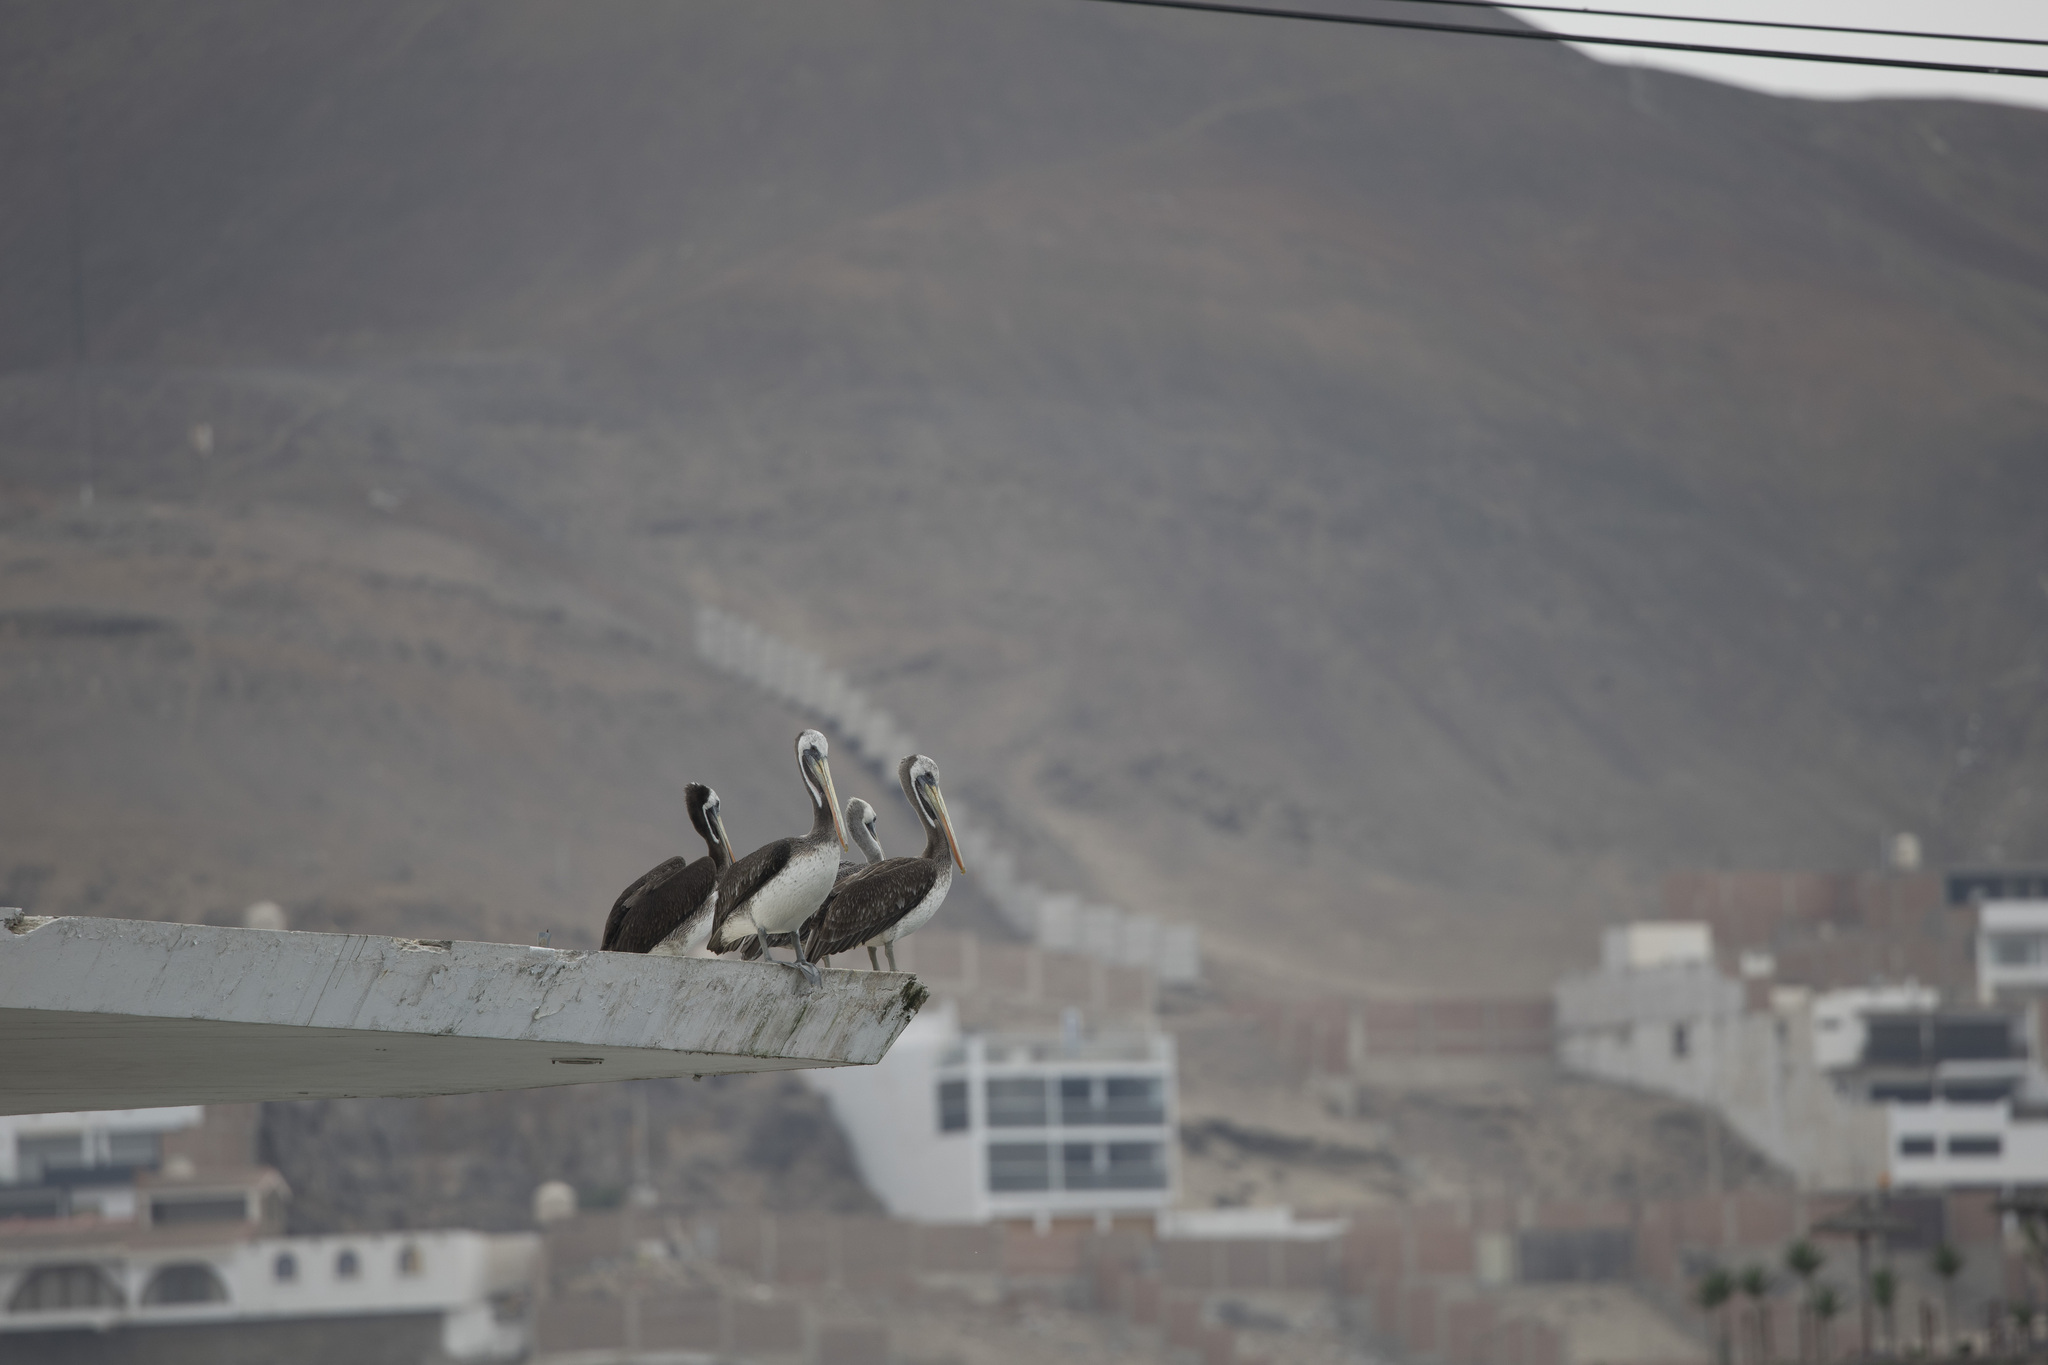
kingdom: Animalia
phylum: Chordata
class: Aves
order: Pelecaniformes
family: Pelecanidae
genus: Pelecanus
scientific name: Pelecanus thagus
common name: Peruvian pelican
